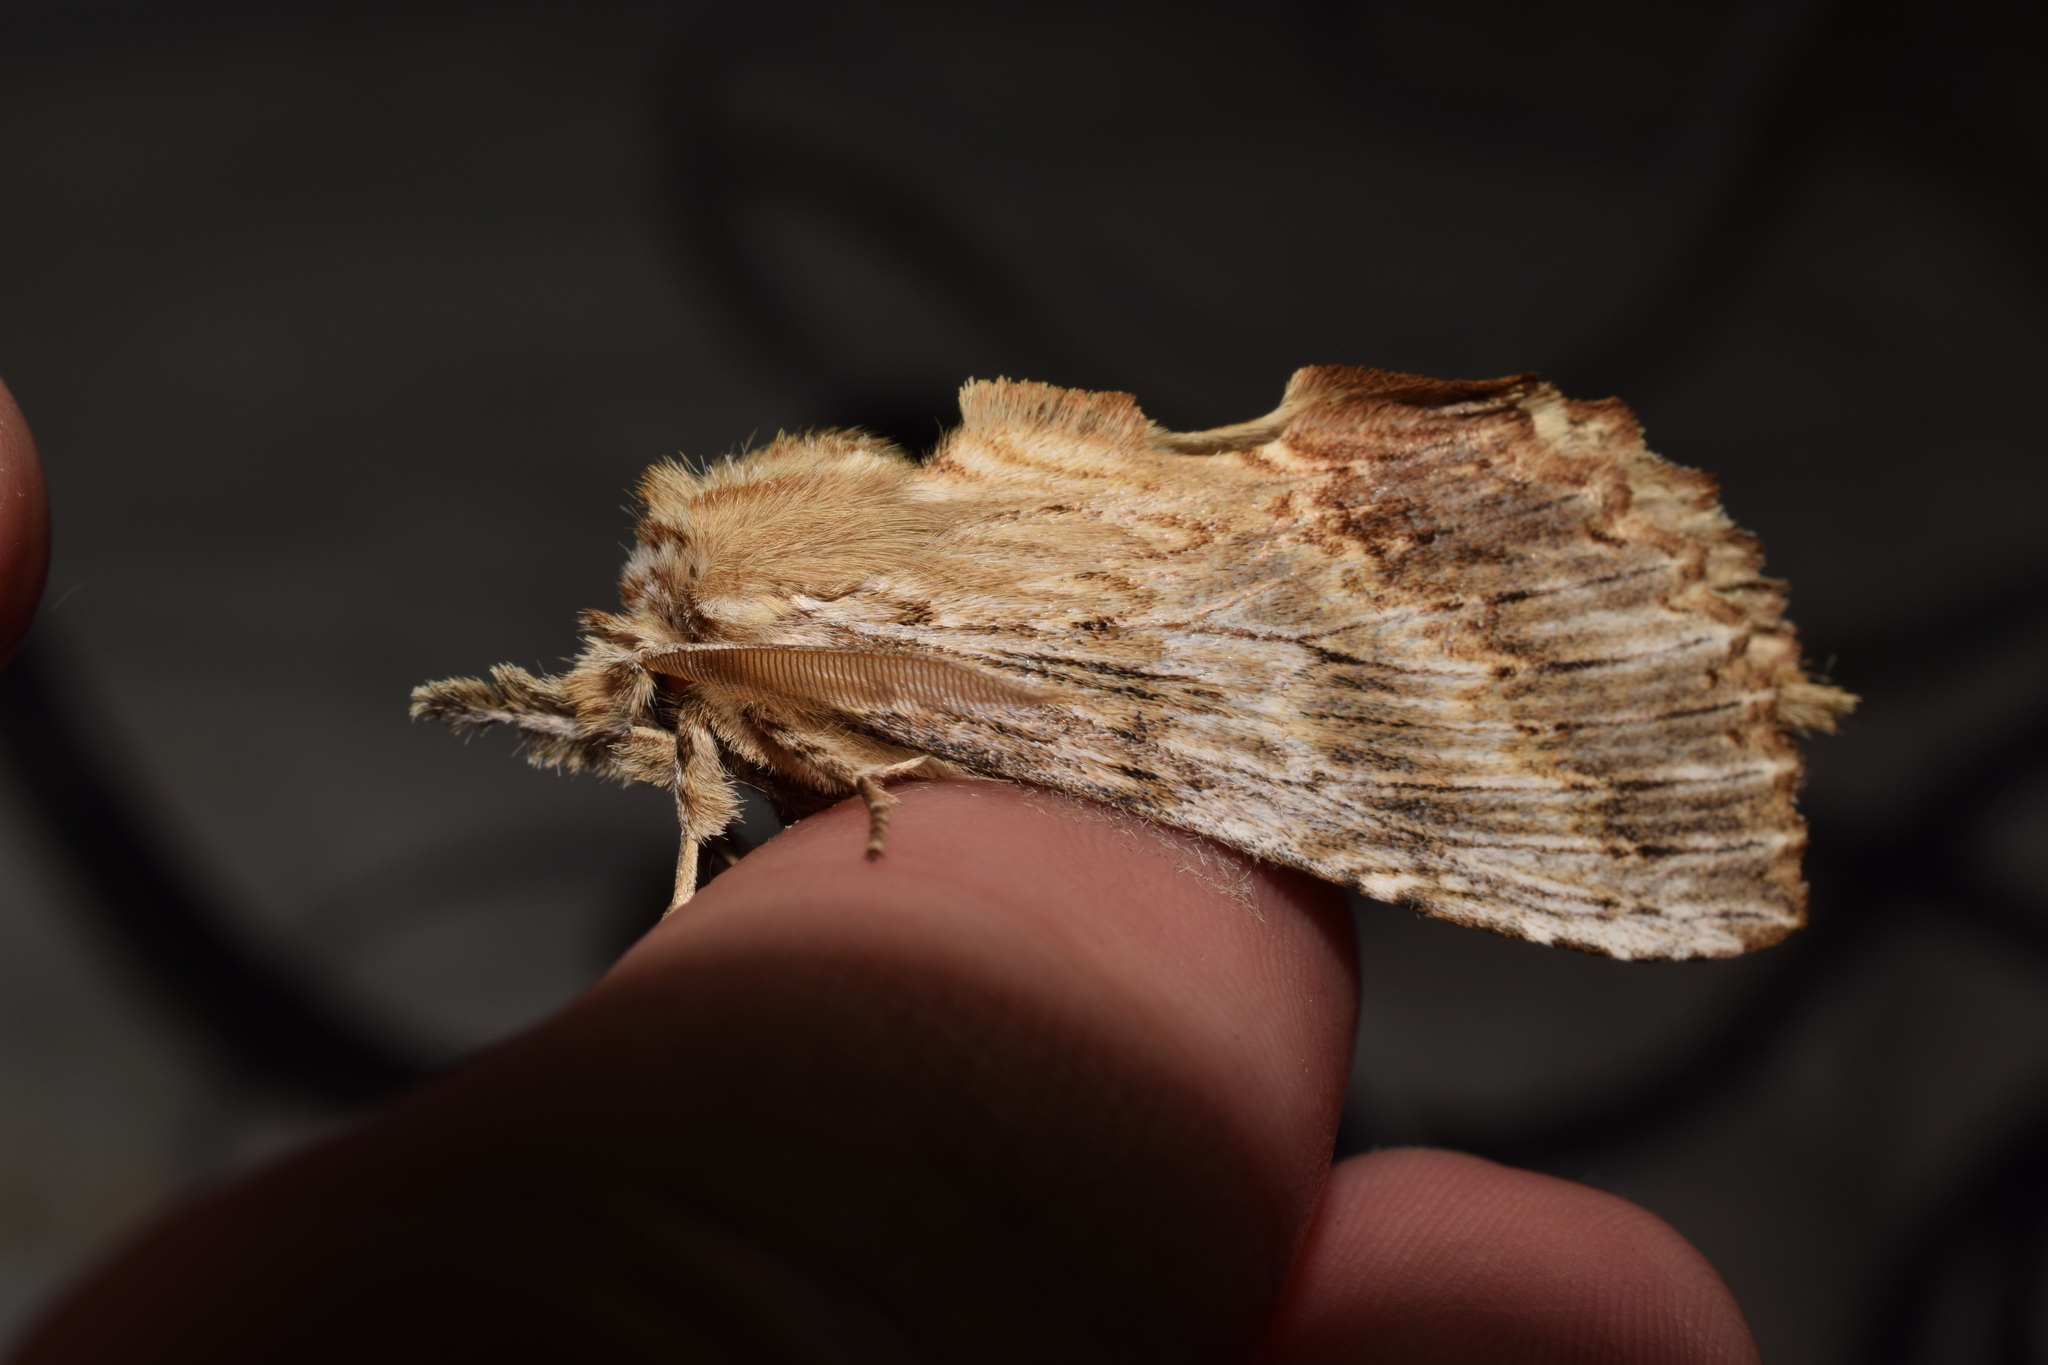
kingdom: Animalia
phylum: Arthropoda
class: Insecta
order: Lepidoptera
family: Notodontidae
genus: Pterostoma
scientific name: Pterostoma gigantina
